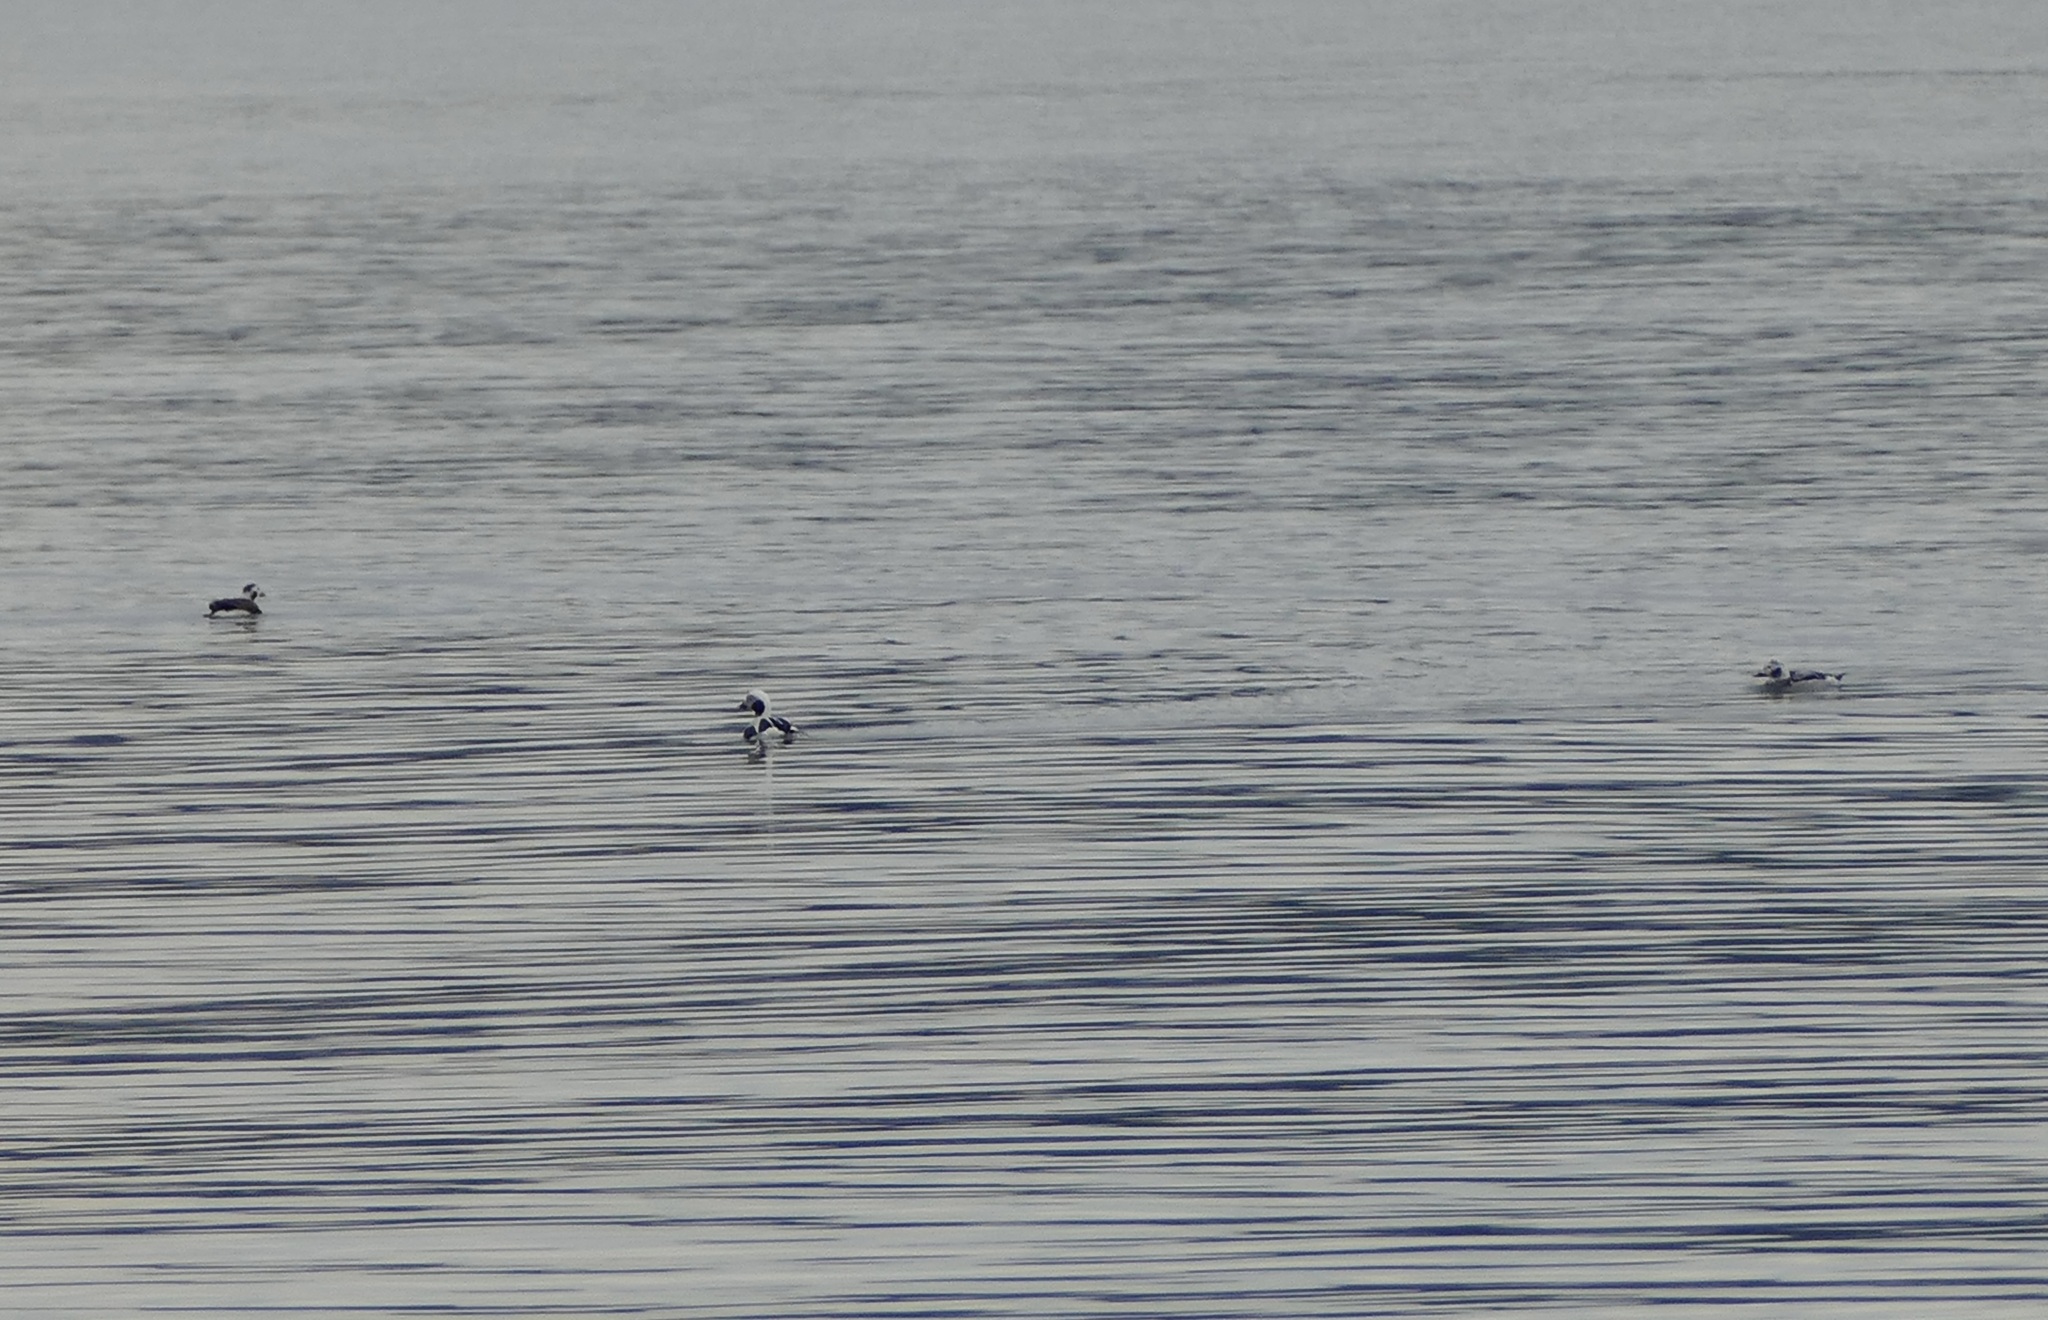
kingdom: Animalia
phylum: Chordata
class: Aves
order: Anseriformes
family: Anatidae
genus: Clangula
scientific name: Clangula hyemalis
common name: Long-tailed duck
